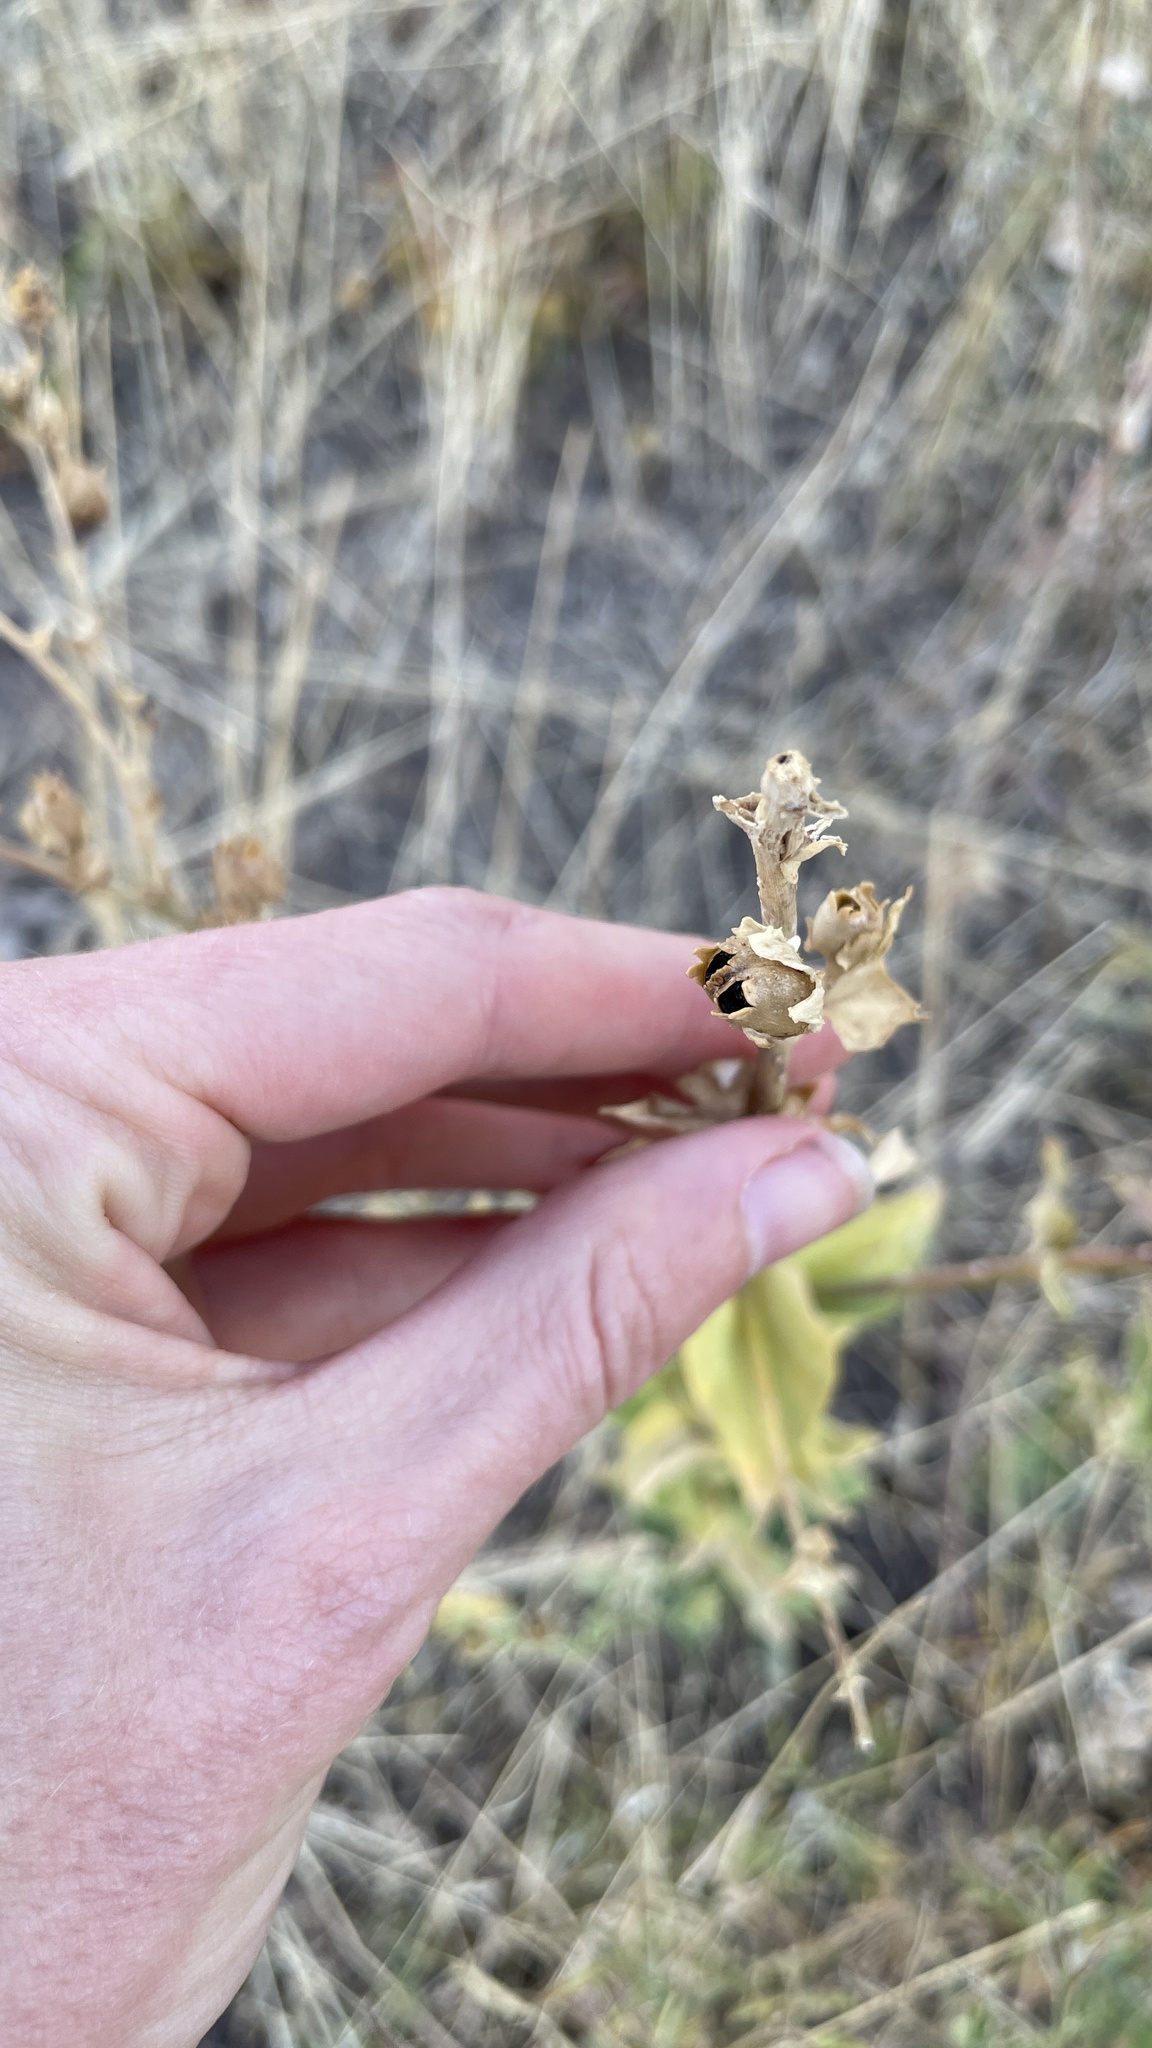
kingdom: Plantae
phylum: Tracheophyta
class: Magnoliopsida
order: Lamiales
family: Plantaginaceae
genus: Linaria
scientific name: Linaria dalmatica
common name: Dalmatian toadflax
